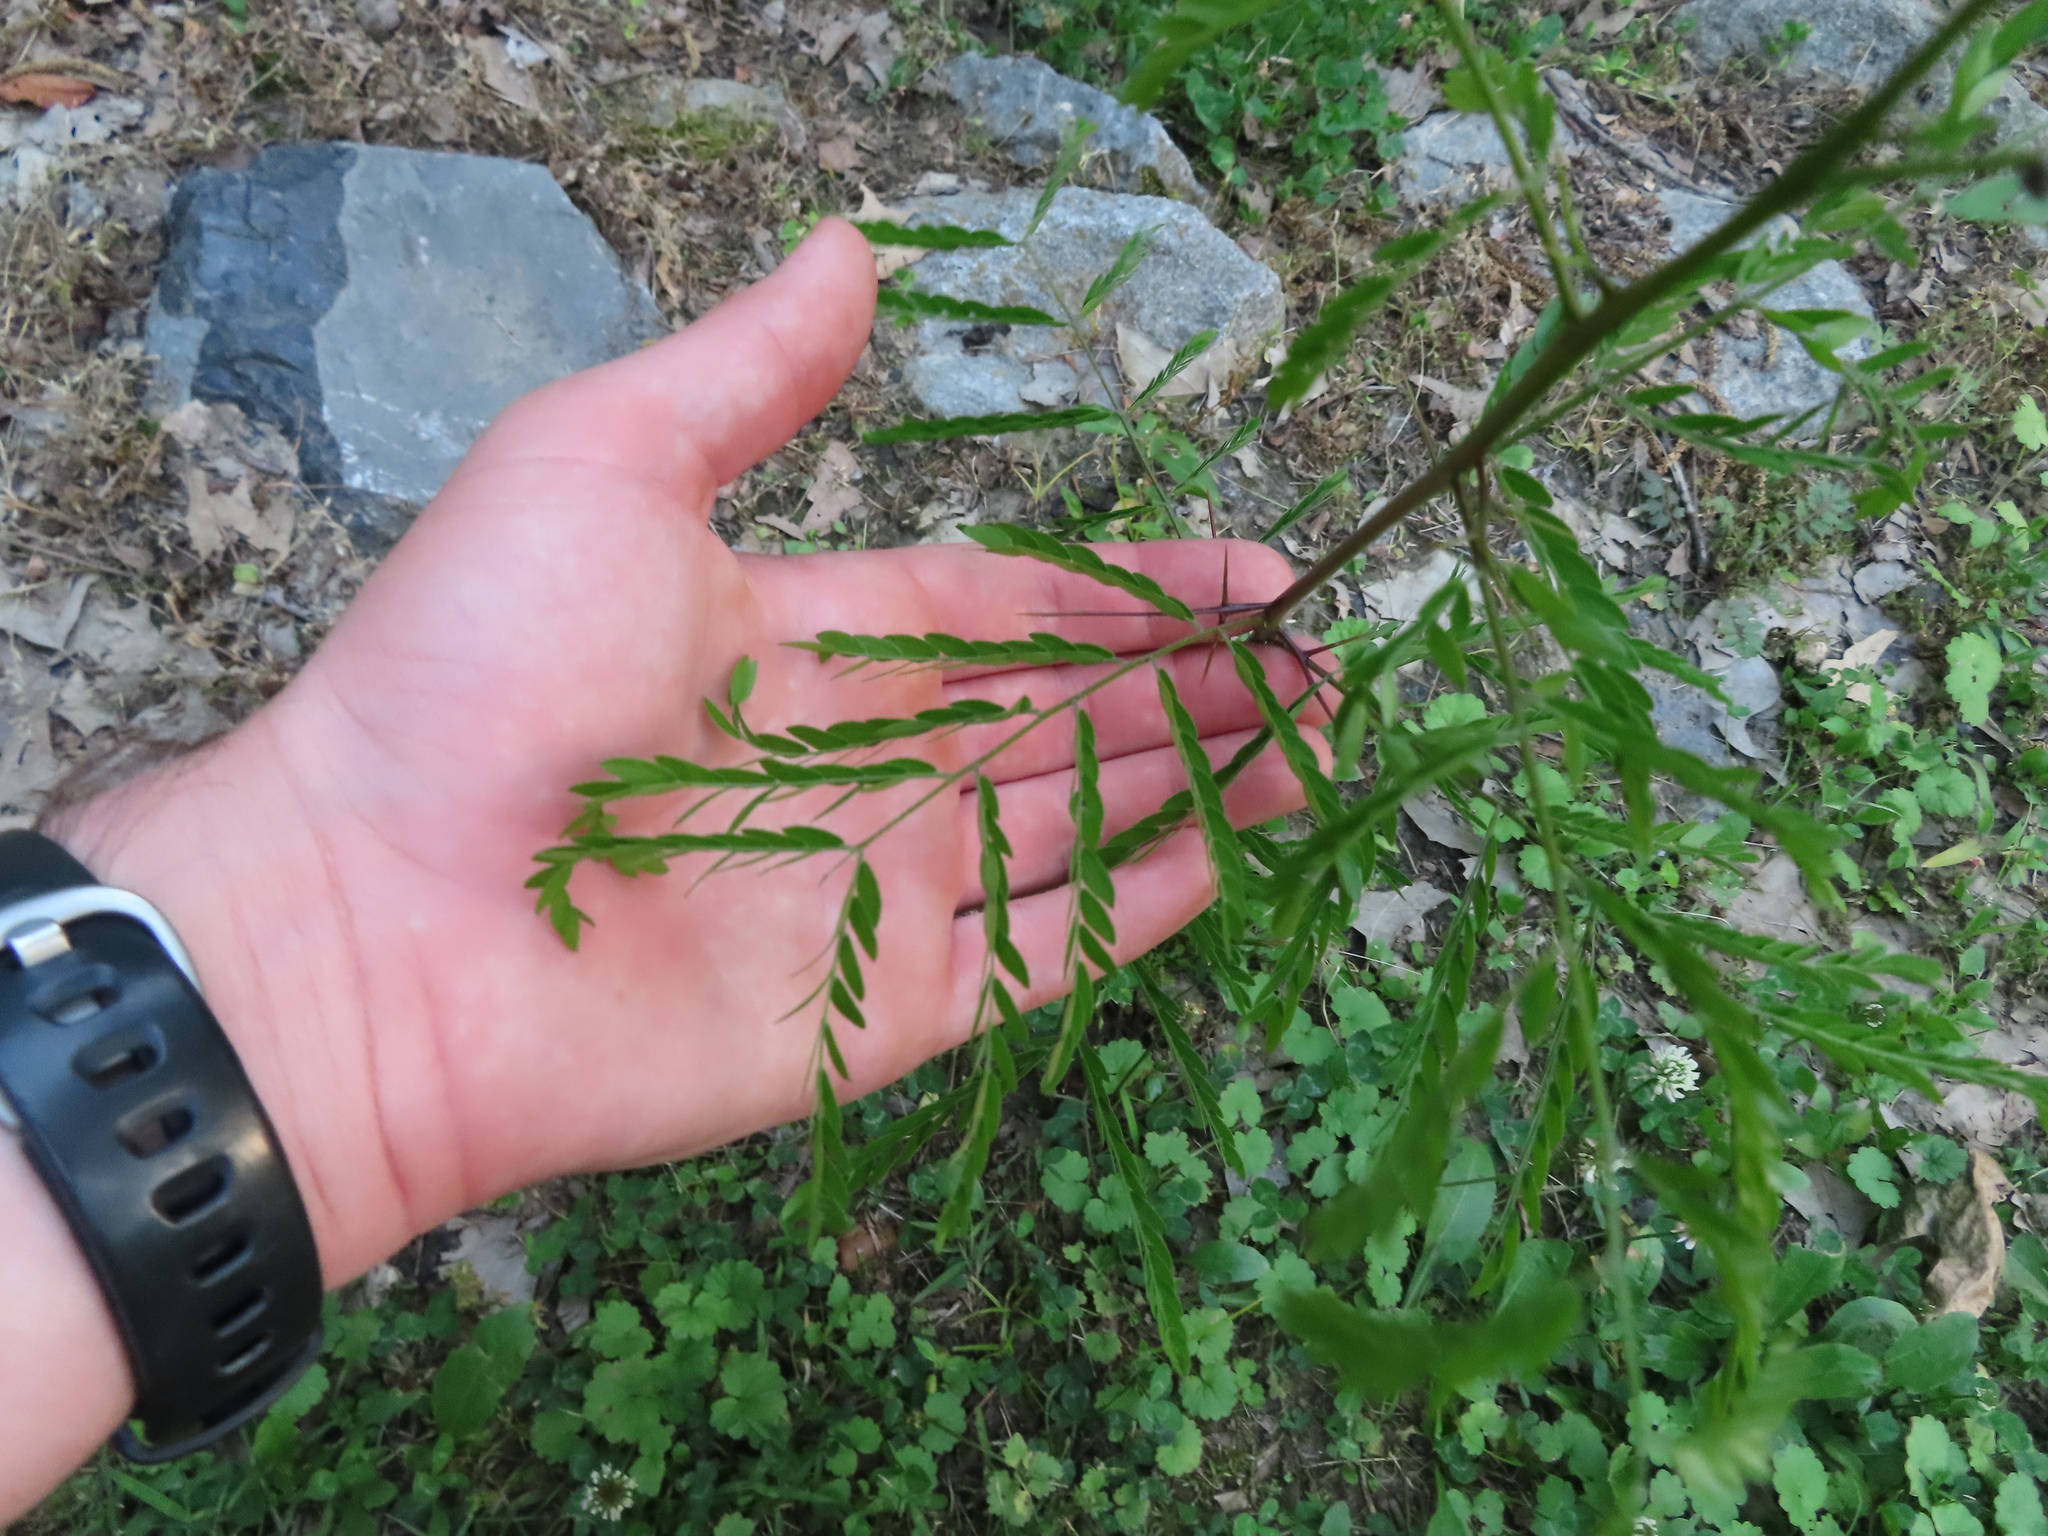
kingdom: Plantae
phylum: Tracheophyta
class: Magnoliopsida
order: Fabales
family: Fabaceae
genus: Gleditsia
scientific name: Gleditsia triacanthos
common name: Common honeylocust
